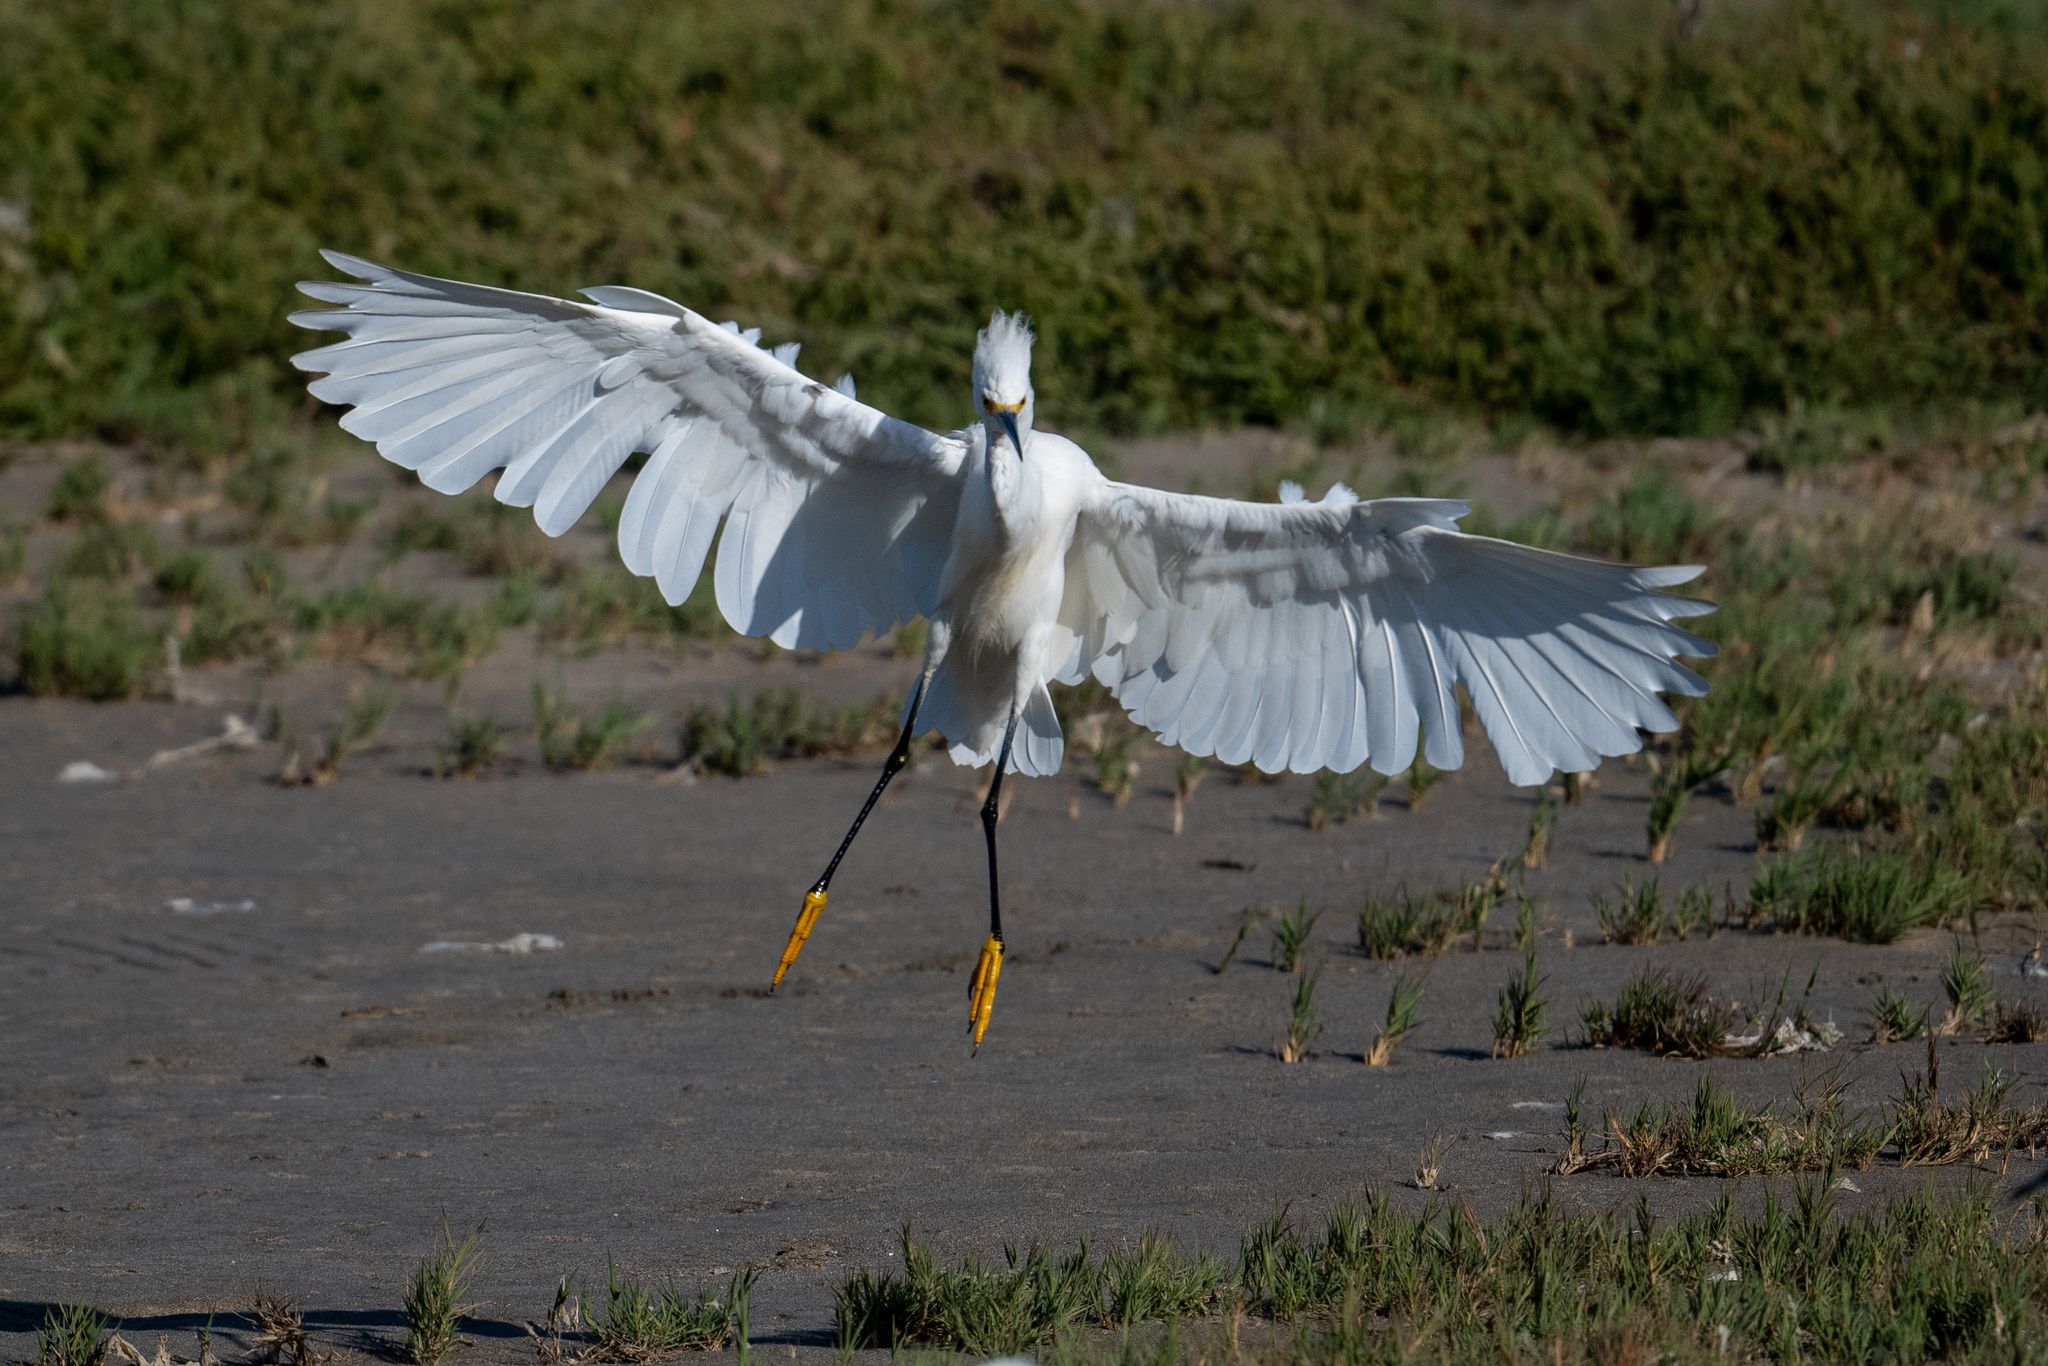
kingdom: Animalia
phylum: Chordata
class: Aves
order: Pelecaniformes
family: Ardeidae
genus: Egretta
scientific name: Egretta thula
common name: Snowy egret
